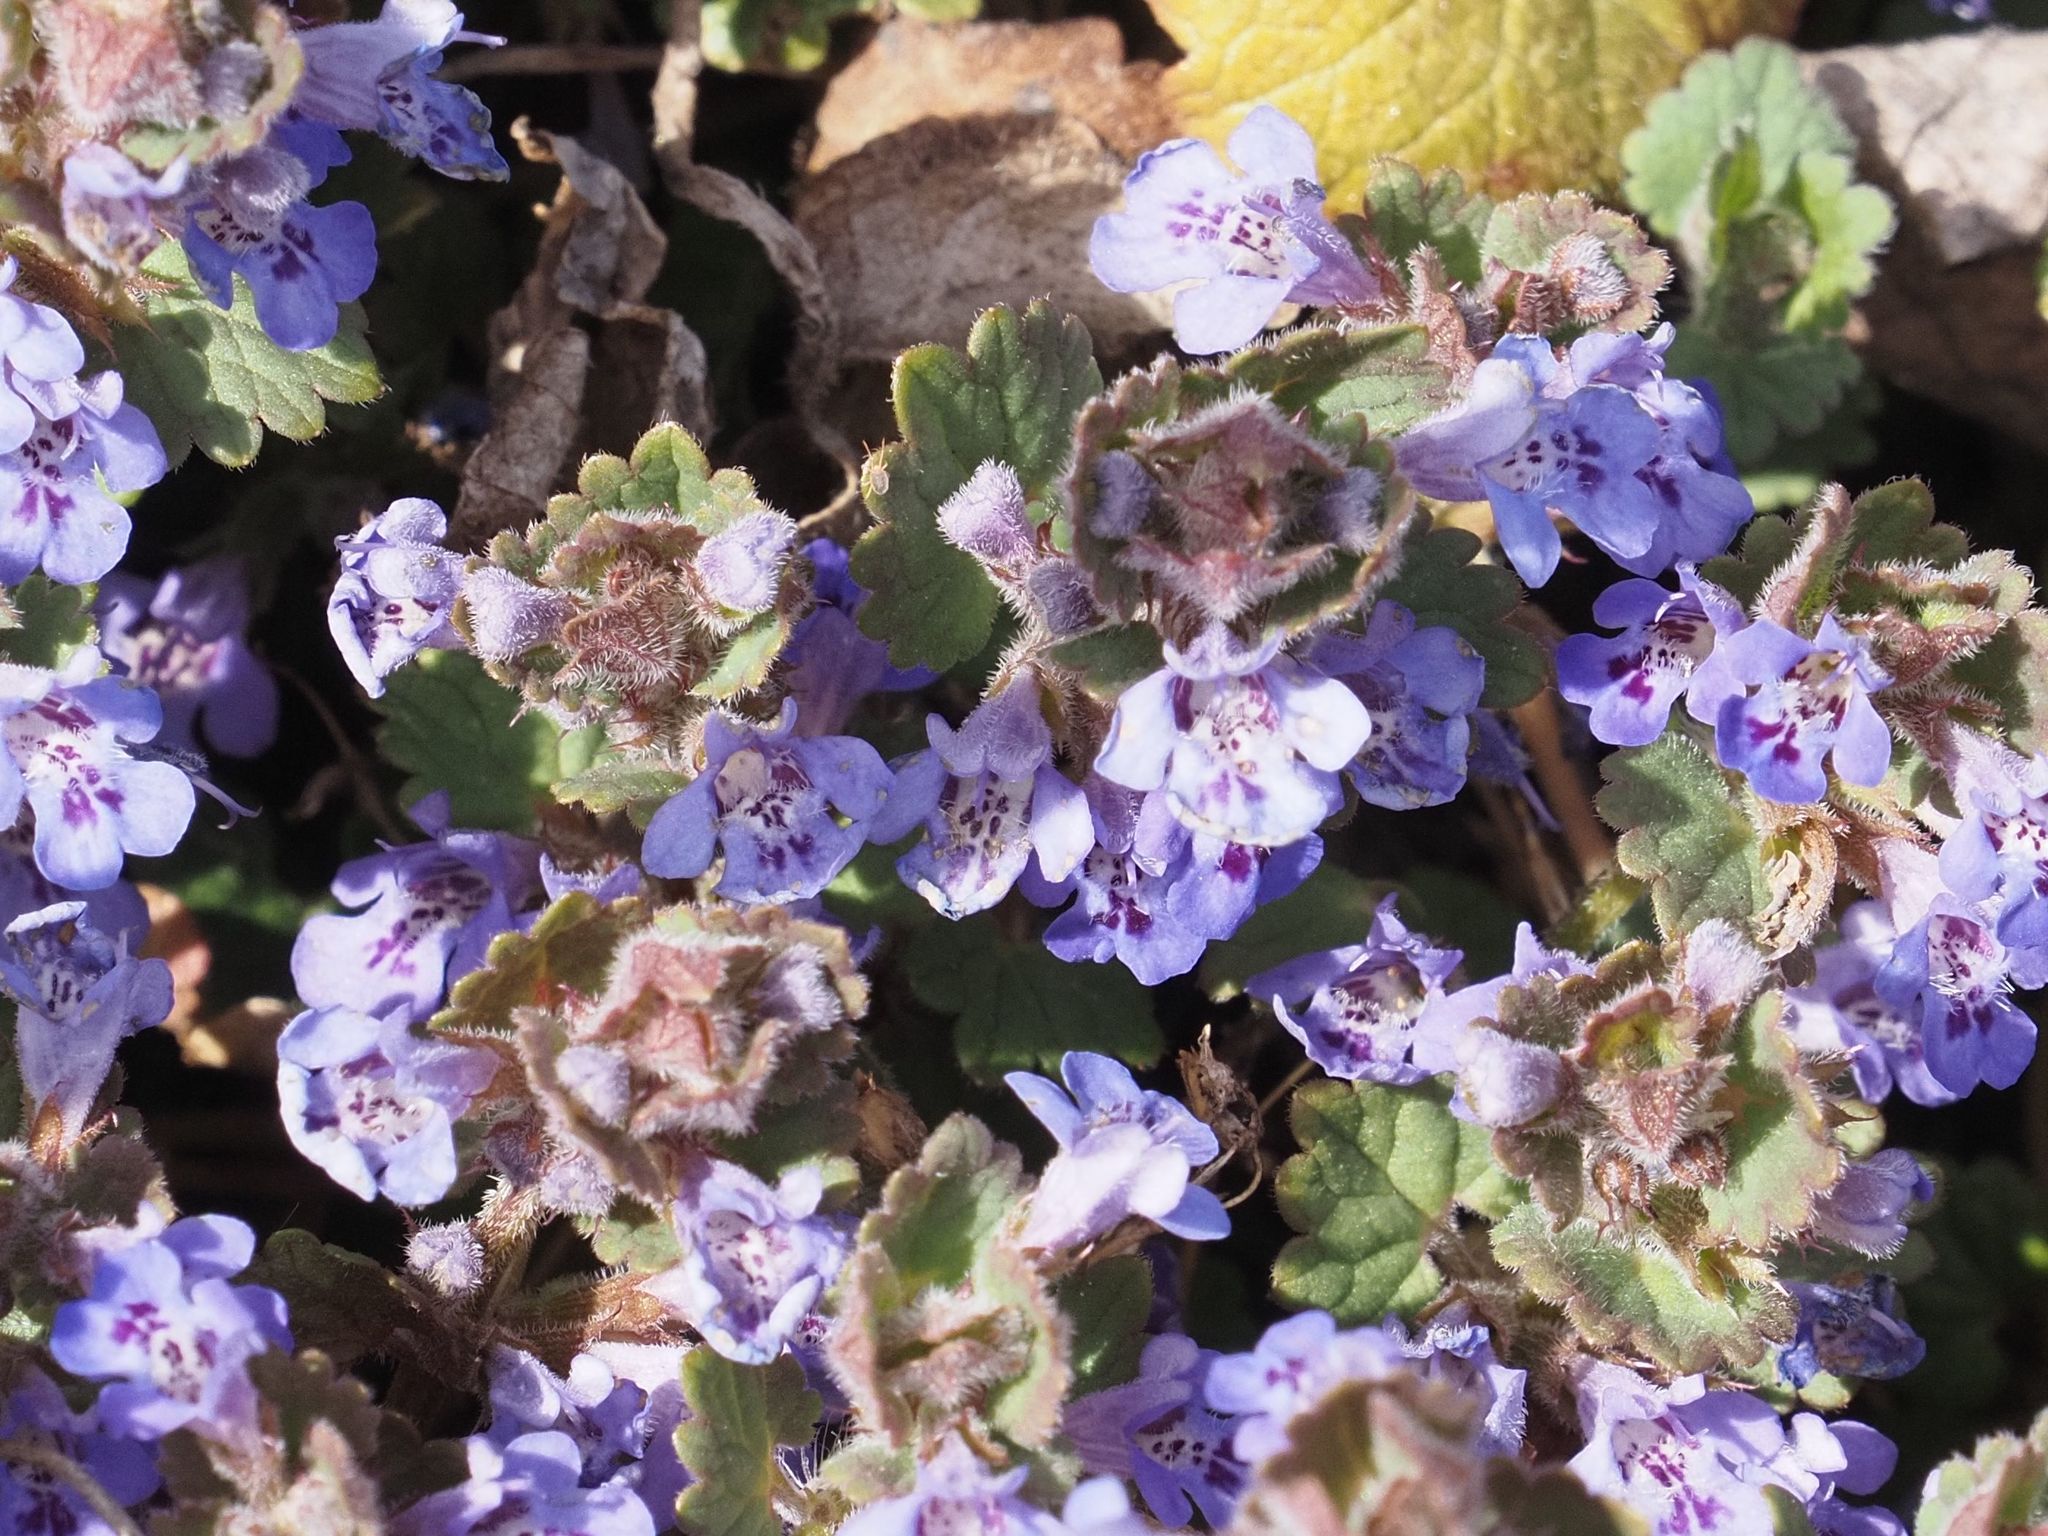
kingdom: Plantae
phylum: Tracheophyta
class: Magnoliopsida
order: Lamiales
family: Lamiaceae
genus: Glechoma
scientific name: Glechoma hederacea
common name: Ground ivy
